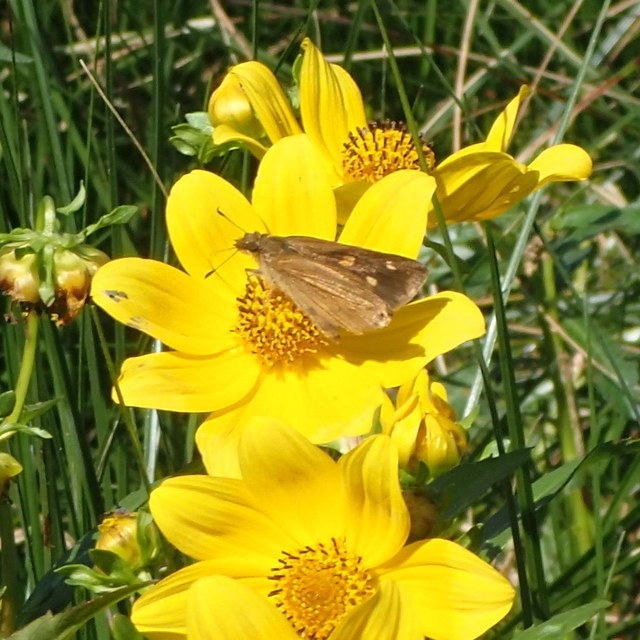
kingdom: Animalia
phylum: Arthropoda
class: Insecta
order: Lepidoptera
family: Hesperiidae
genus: Poanes
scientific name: Poanes viator
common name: Broad-winged skipper
